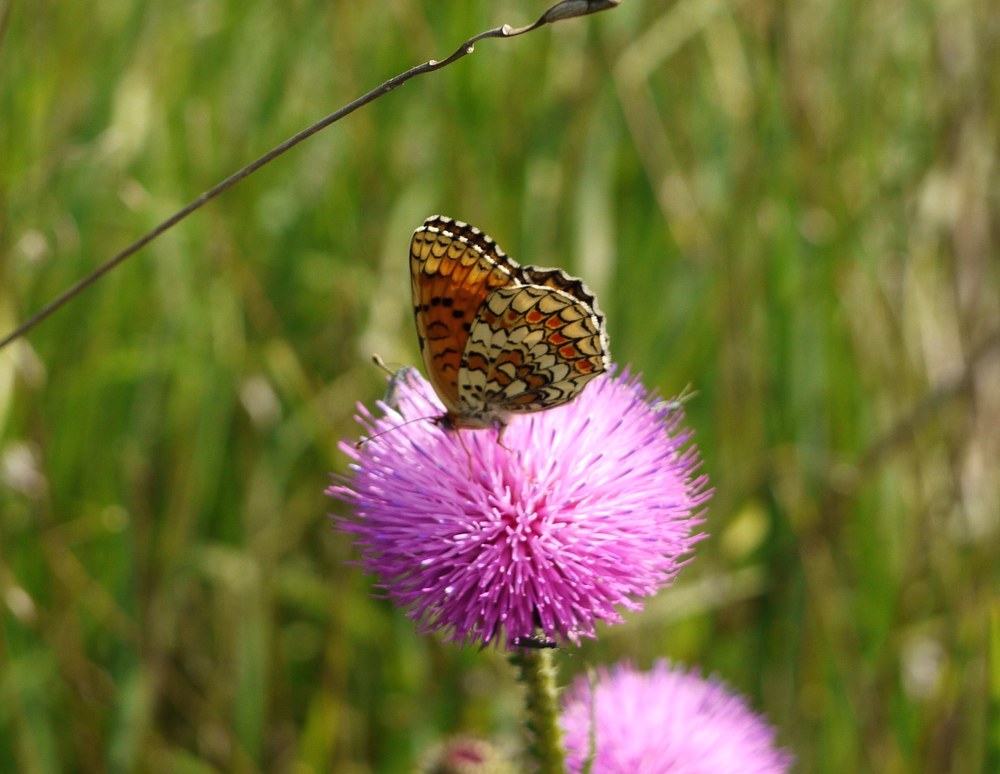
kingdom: Animalia
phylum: Arthropoda
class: Insecta
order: Lepidoptera
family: Nymphalidae
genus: Melitaea
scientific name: Melitaea phoebe
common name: Knapweed fritillary
